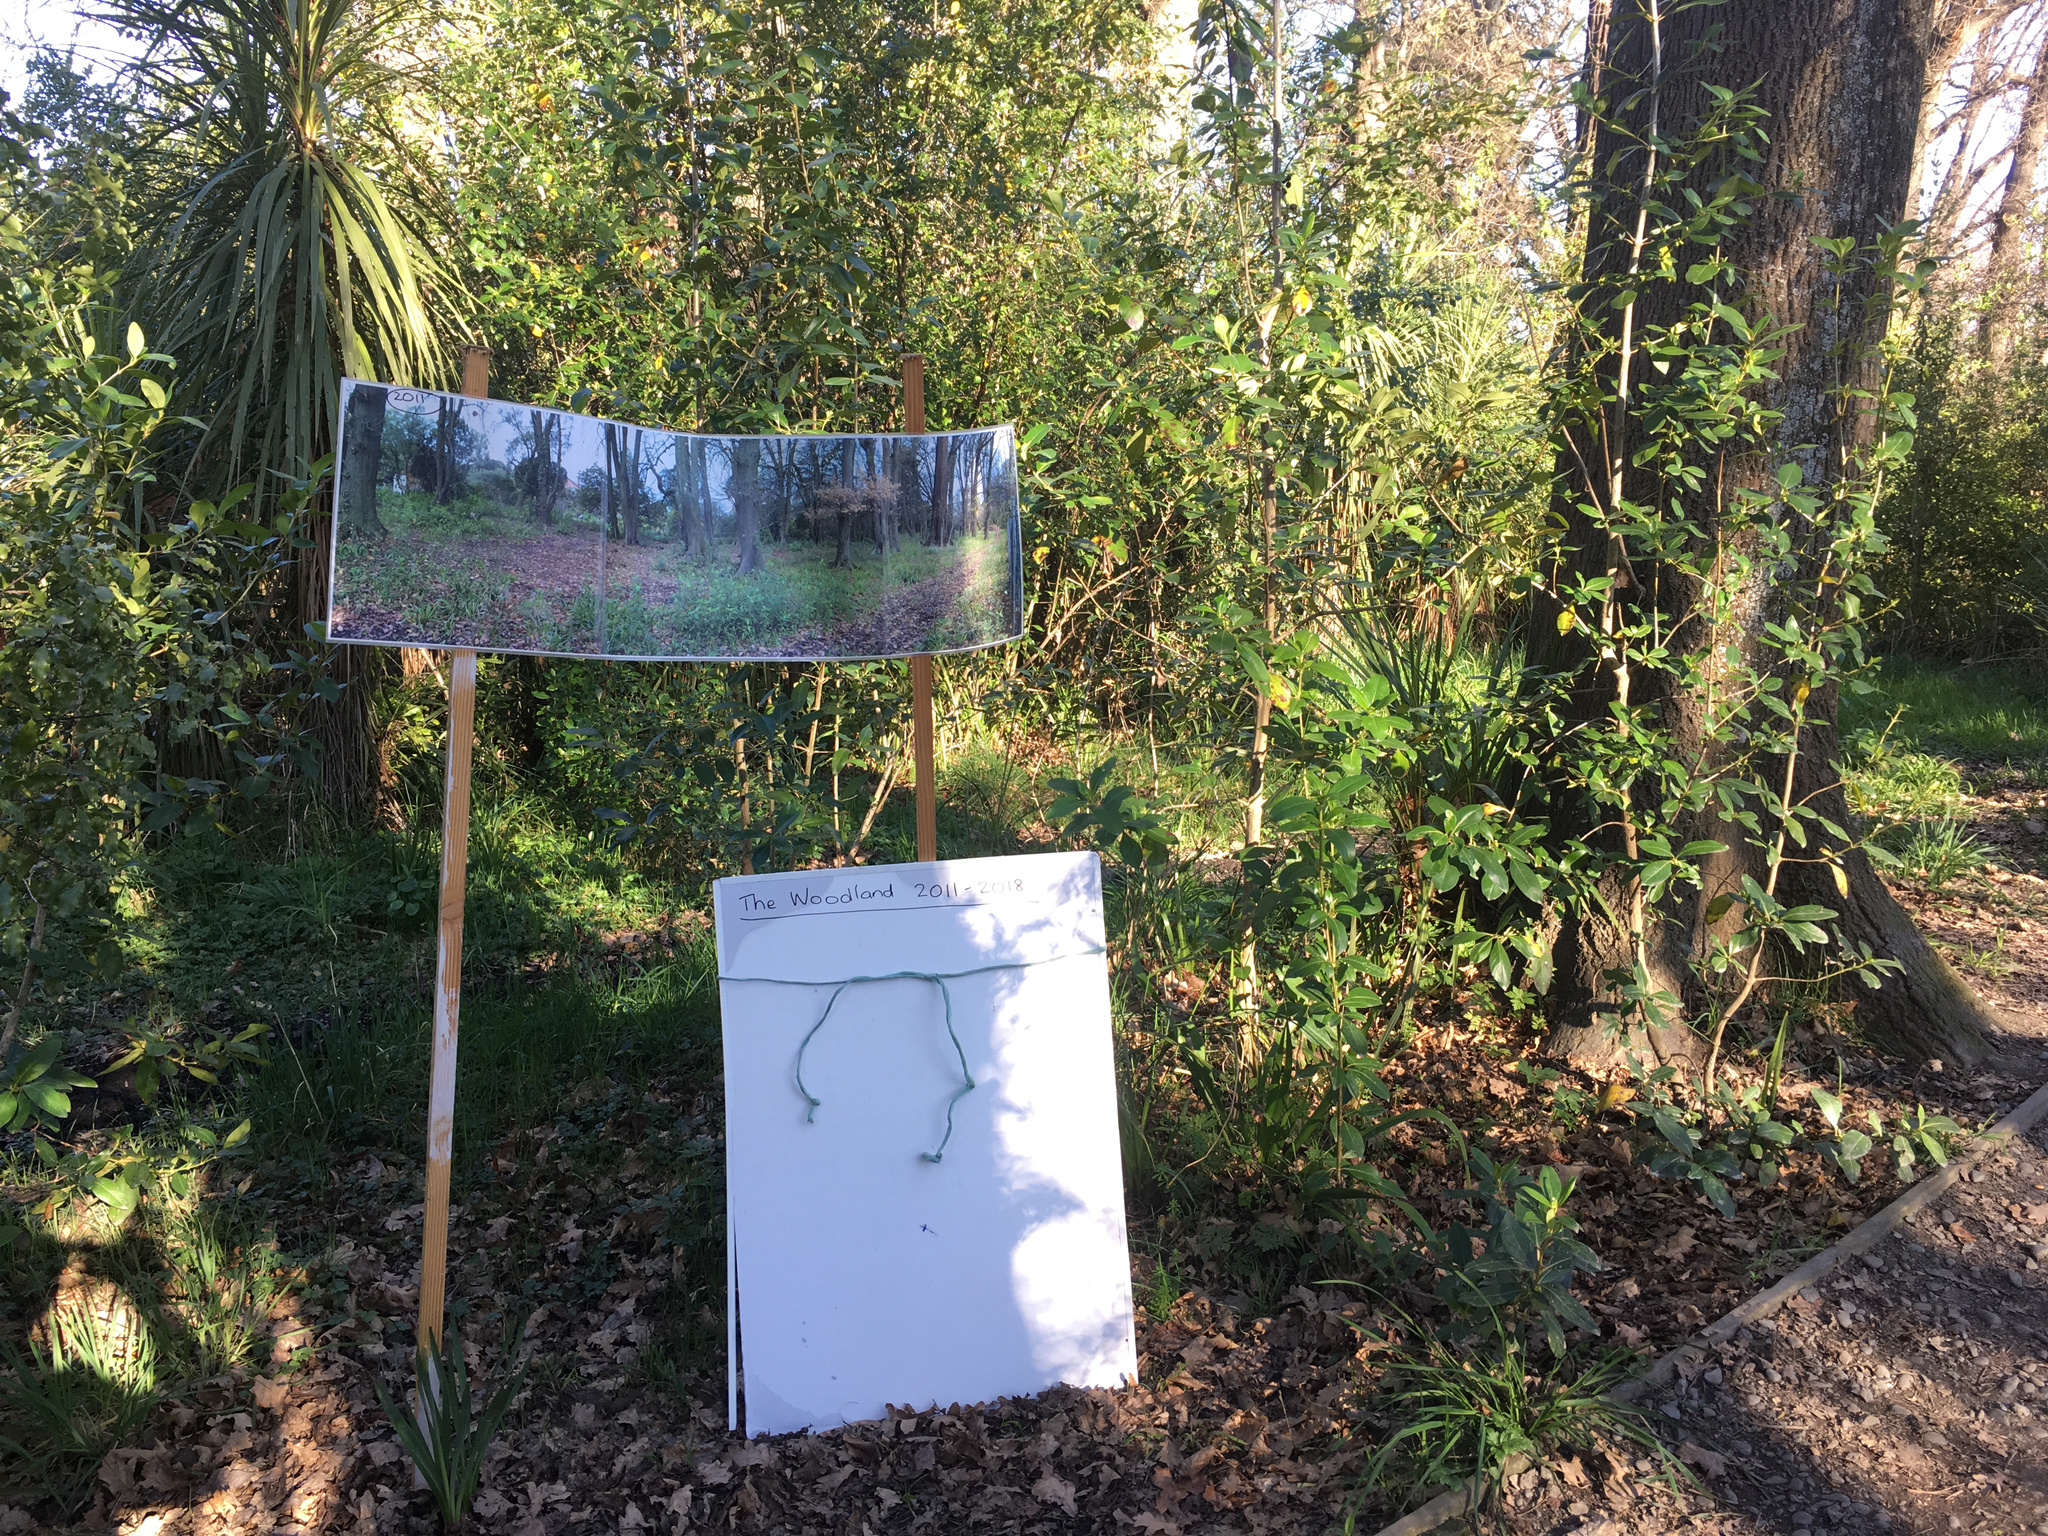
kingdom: Plantae
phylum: Tracheophyta
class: Magnoliopsida
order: Gentianales
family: Rubiaceae
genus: Coprosma
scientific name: Coprosma robusta
